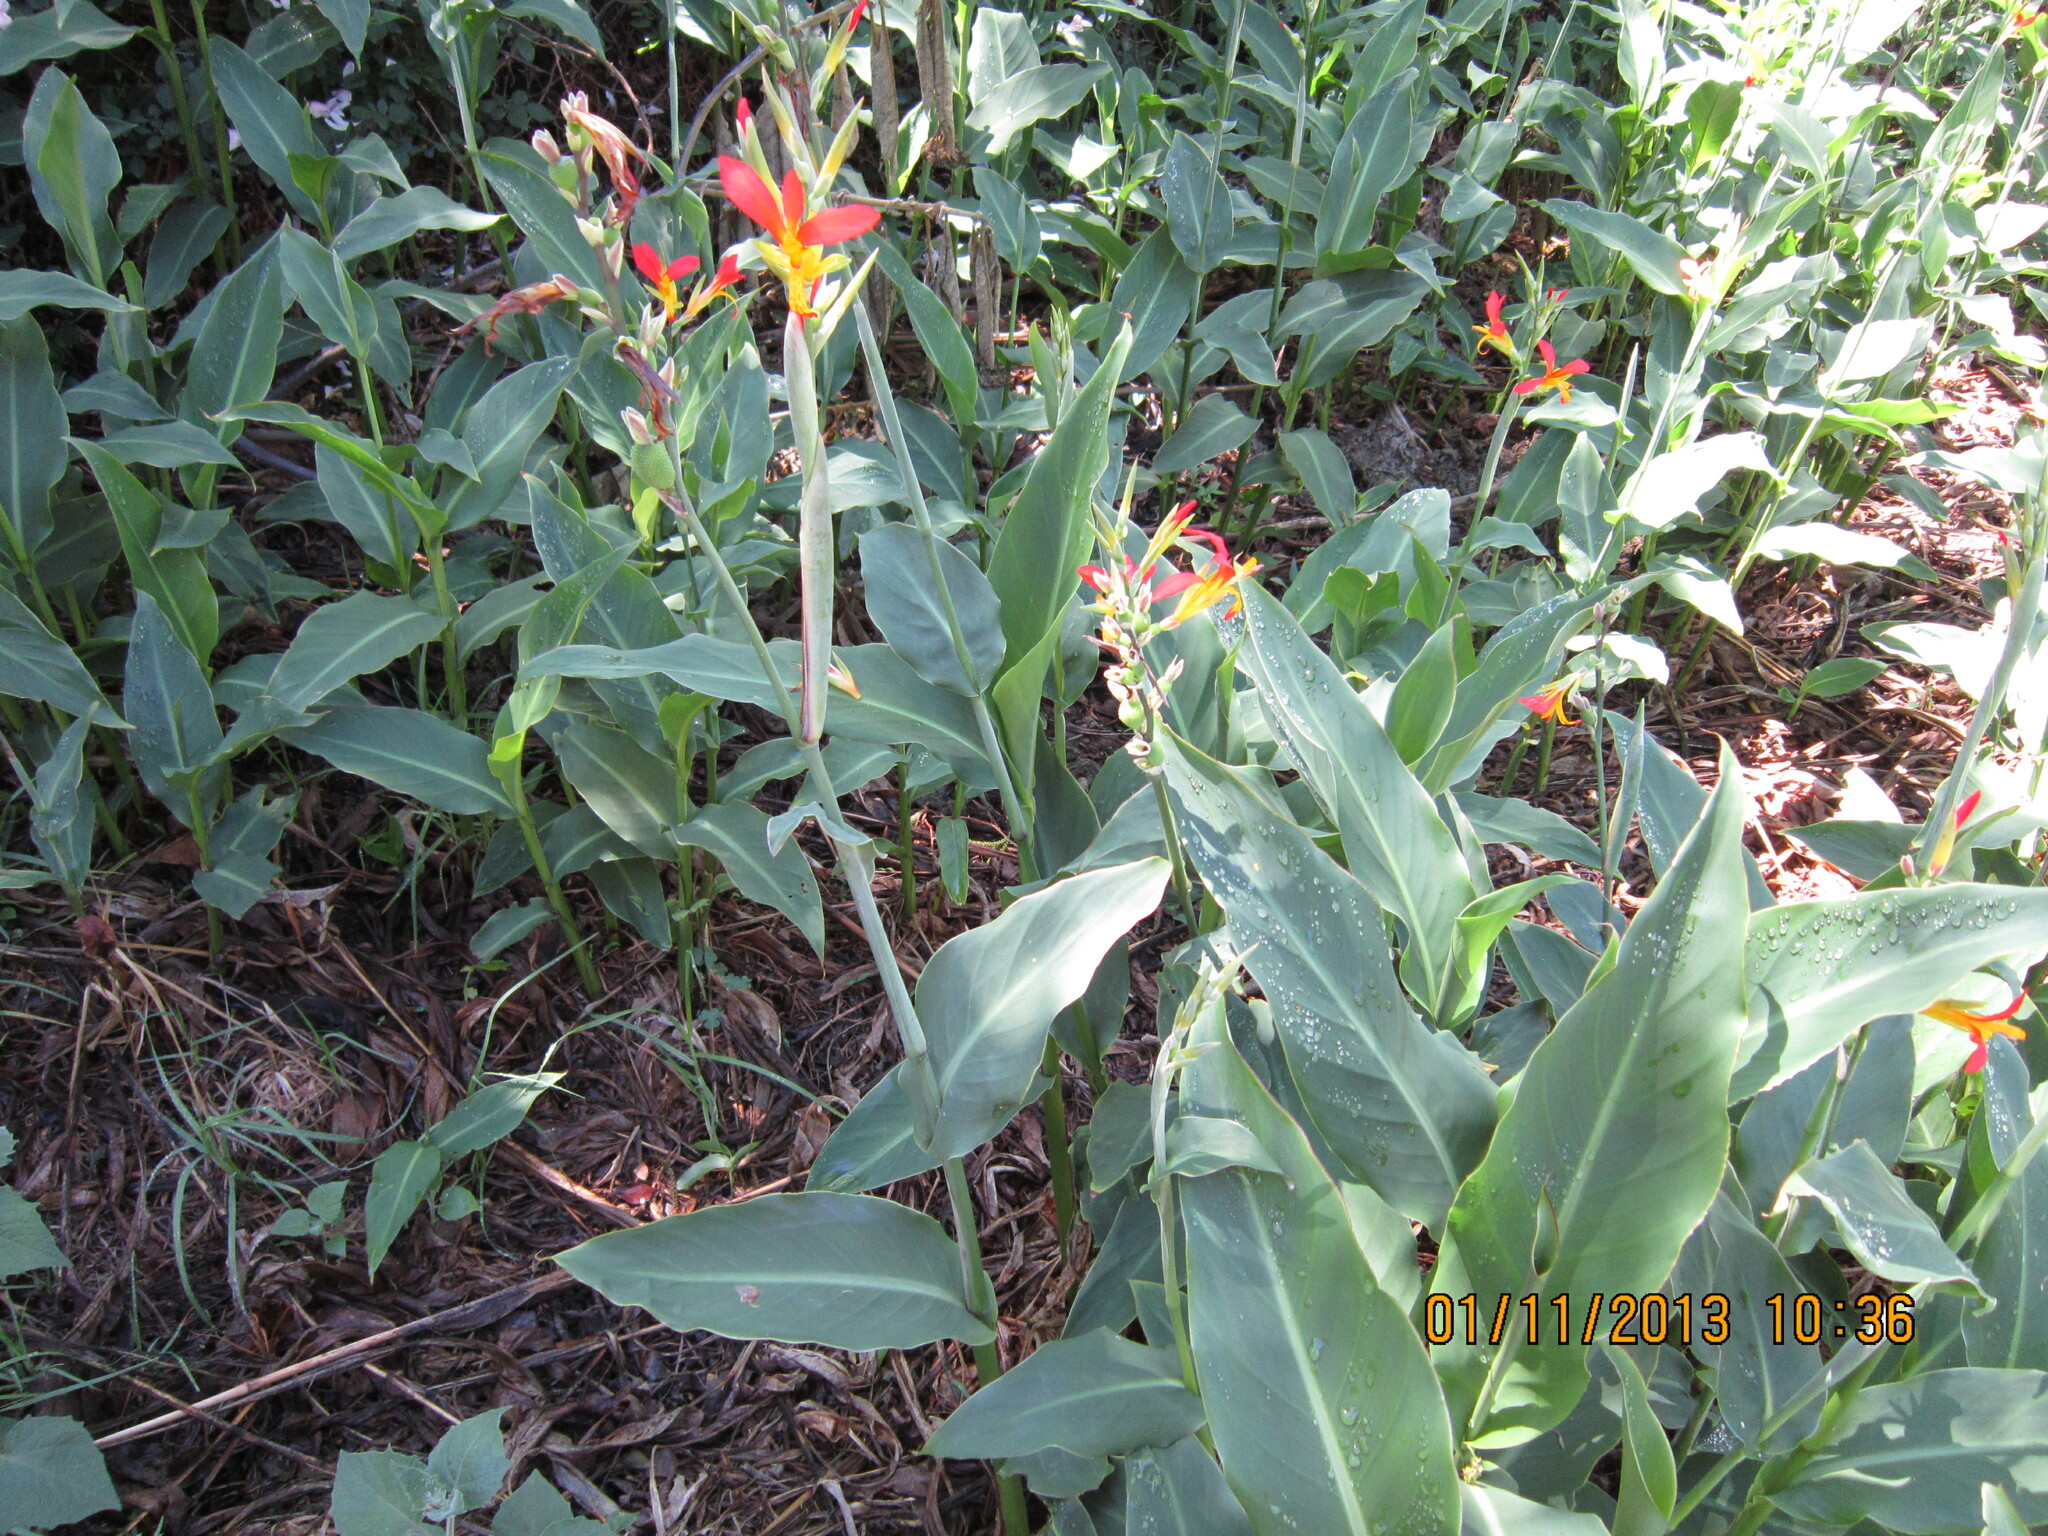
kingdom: Plantae
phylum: Tracheophyta
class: Liliopsida
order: Zingiberales
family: Cannaceae
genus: Canna
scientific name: Canna indica
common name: Indian shot
